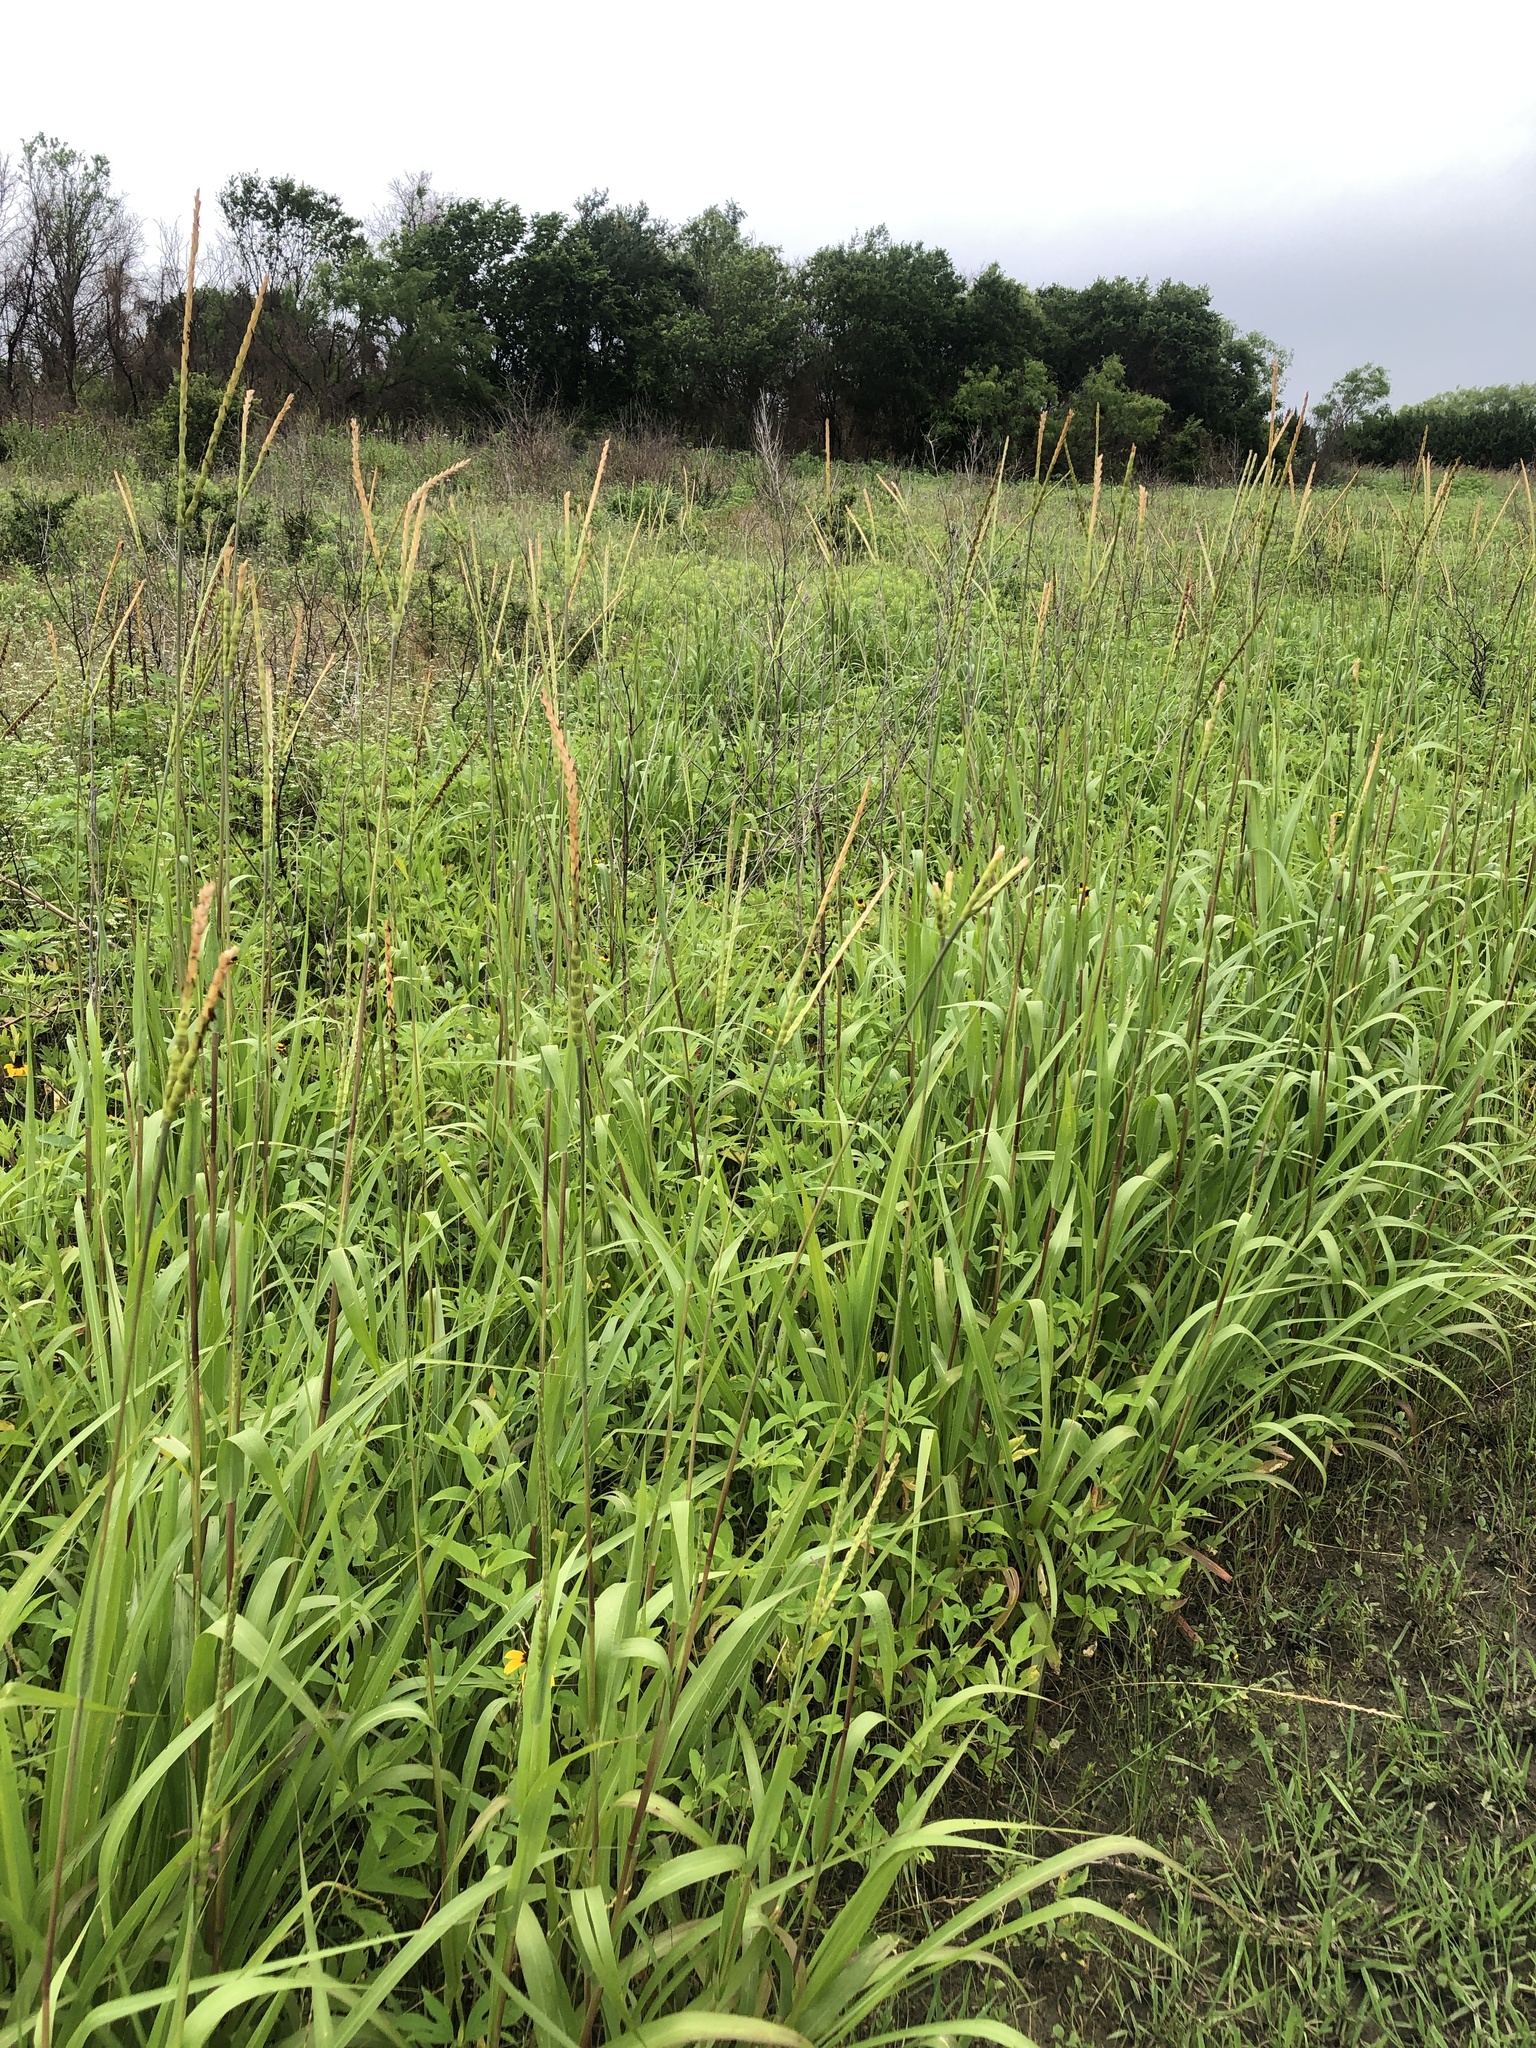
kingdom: Plantae
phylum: Tracheophyta
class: Liliopsida
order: Poales
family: Poaceae
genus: Tripsacum
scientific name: Tripsacum dactyloides
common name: Buffalo-grass
